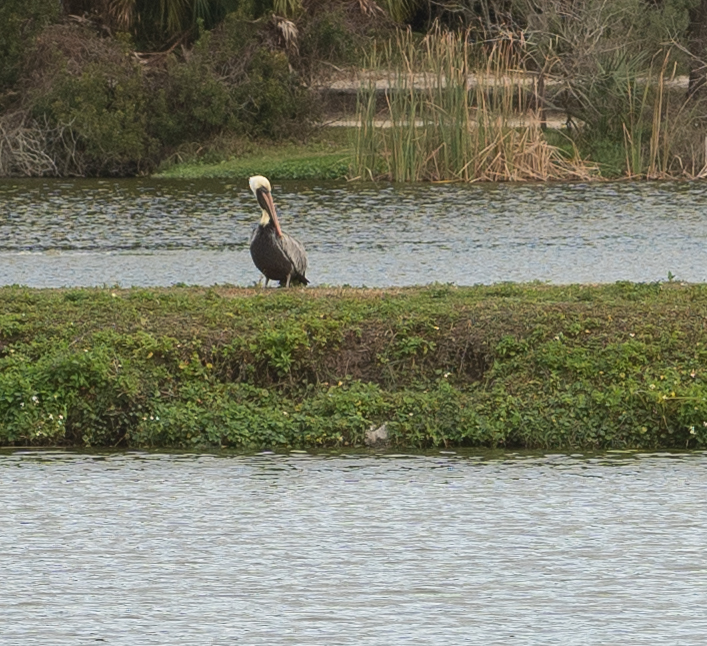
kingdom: Animalia
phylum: Chordata
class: Aves
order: Pelecaniformes
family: Pelecanidae
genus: Pelecanus
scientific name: Pelecanus occidentalis
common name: Brown pelican
